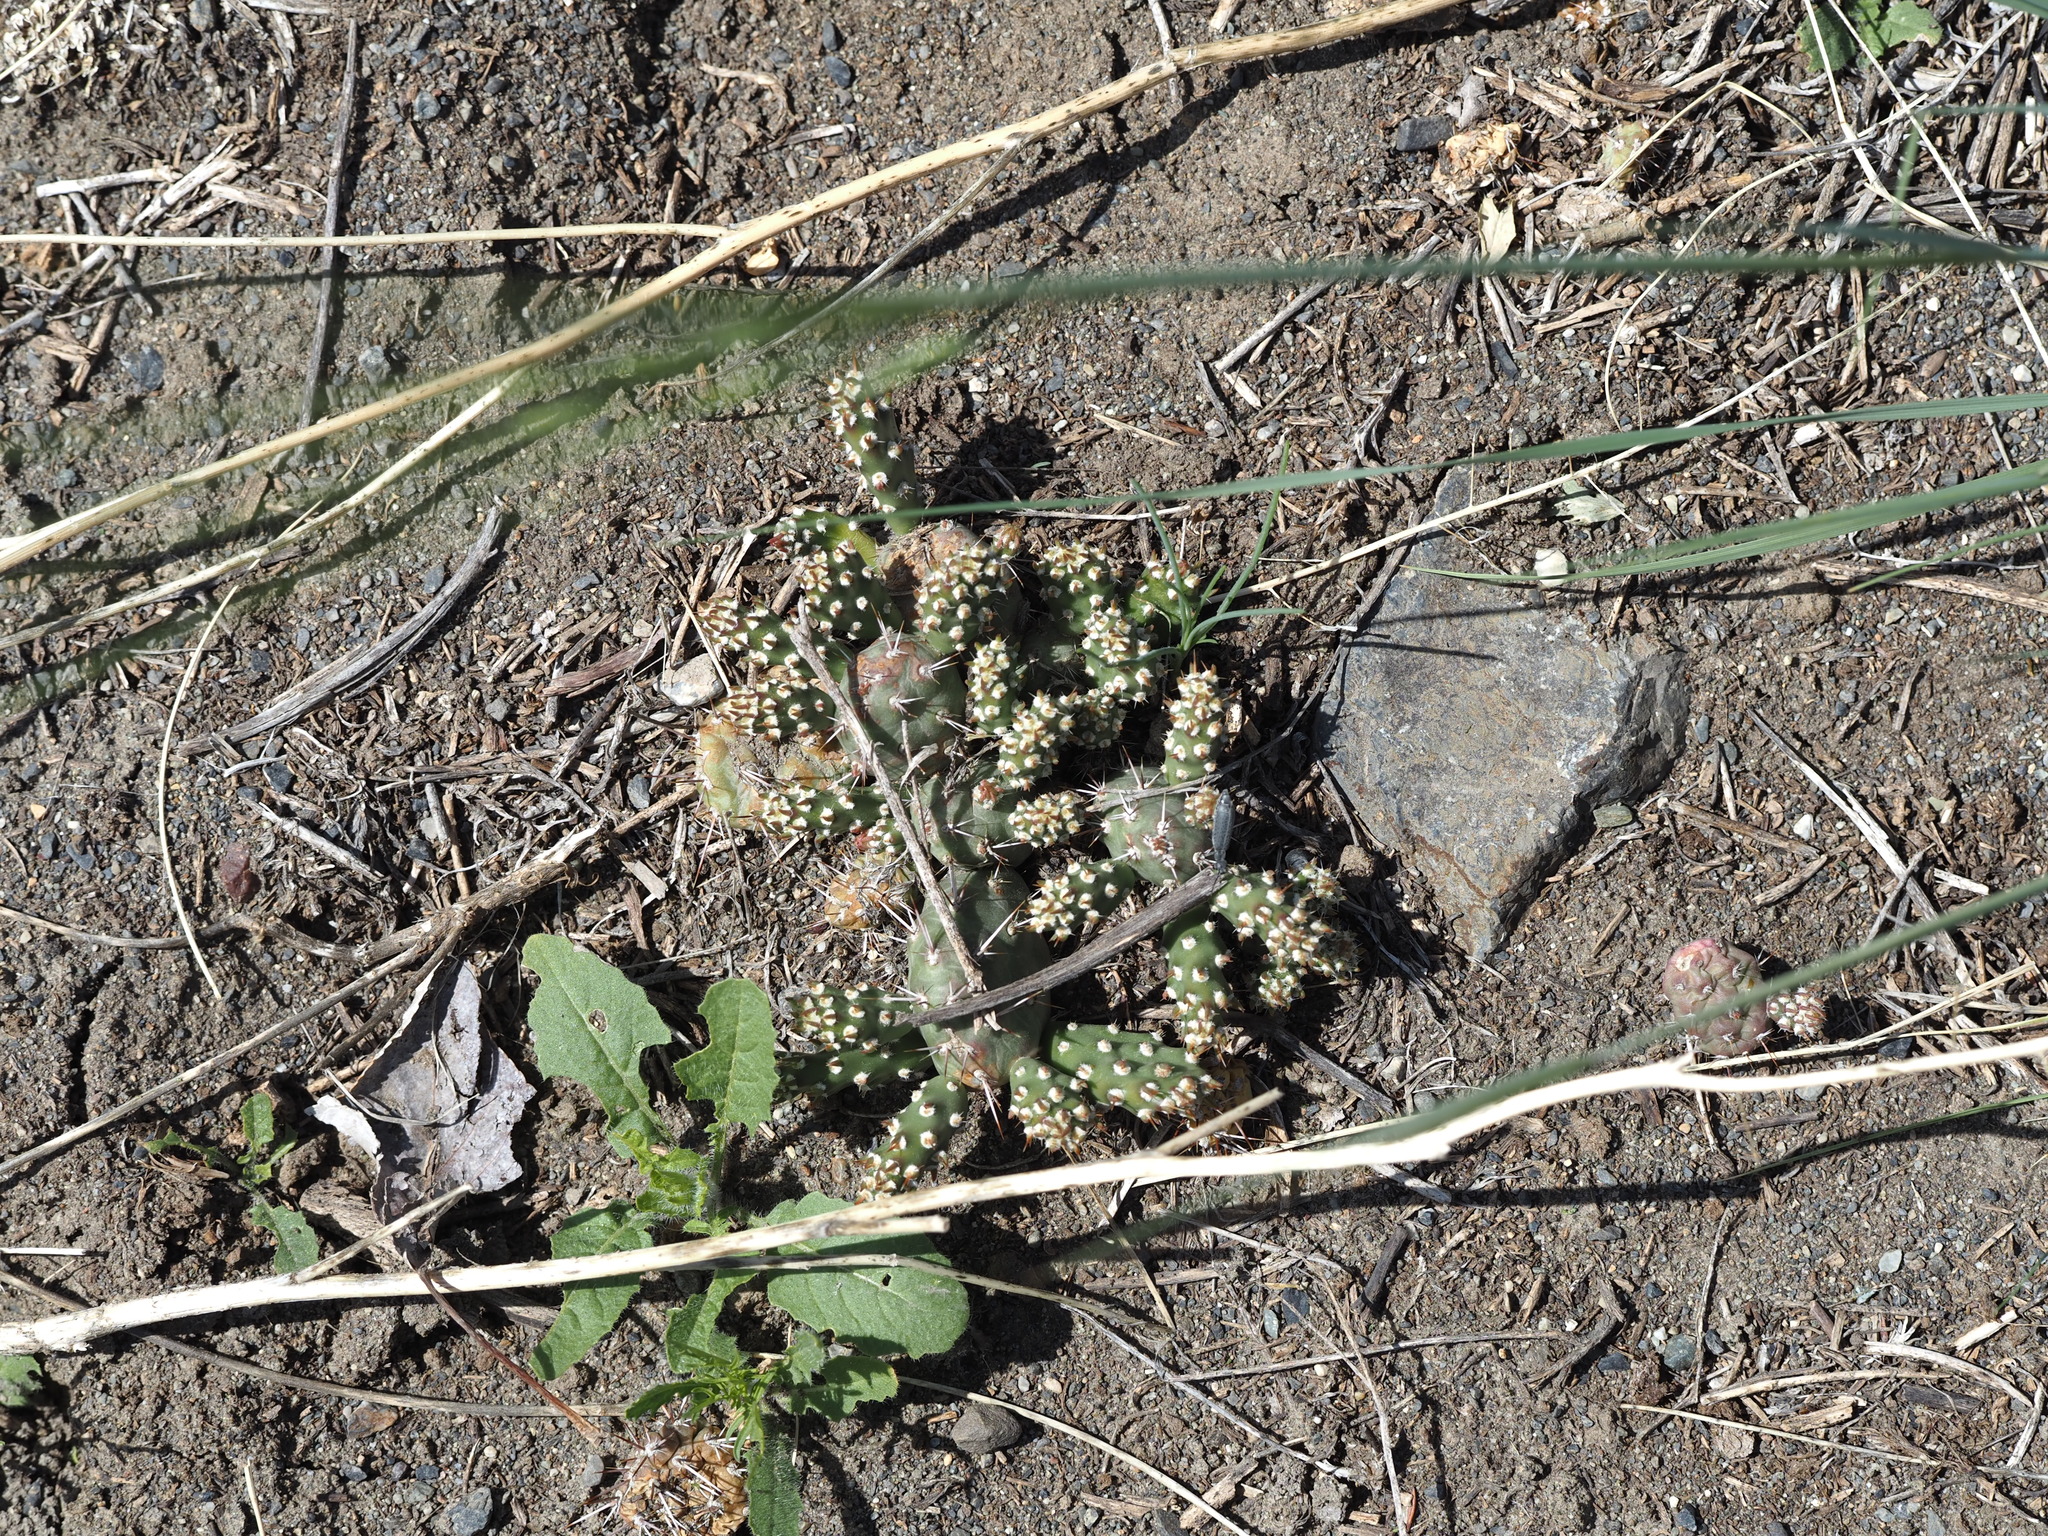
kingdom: Plantae
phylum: Tracheophyta
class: Magnoliopsida
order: Caryophyllales
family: Cactaceae
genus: Opuntia
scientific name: Opuntia fragilis
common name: Brittle cactus
